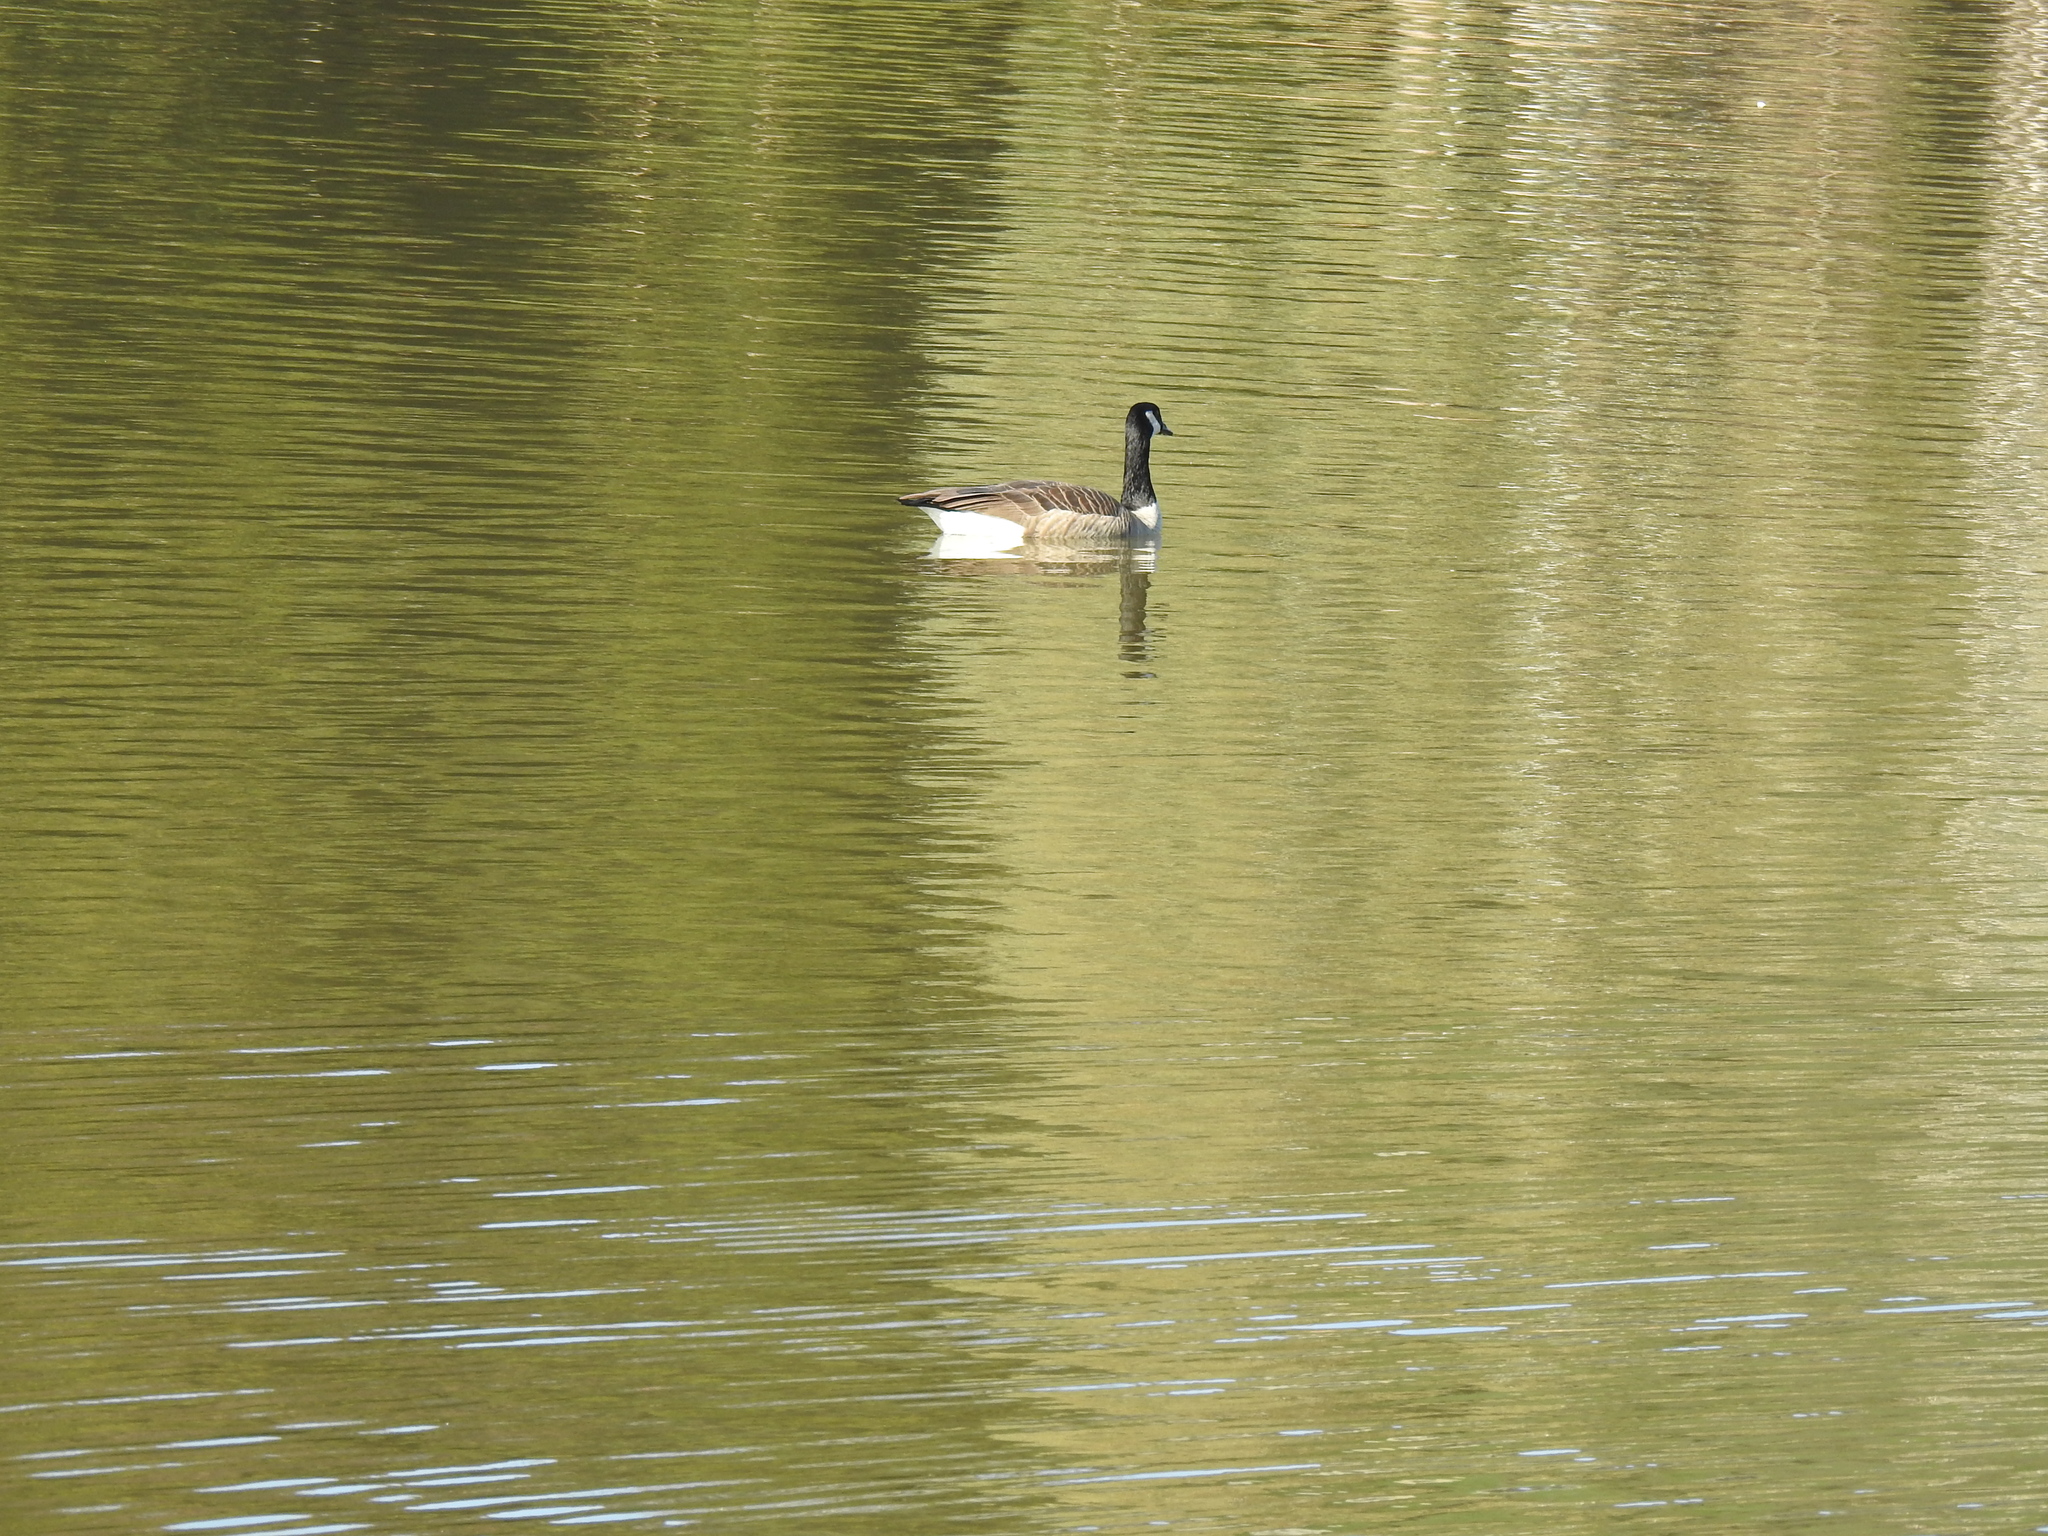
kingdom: Animalia
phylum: Chordata
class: Aves
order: Anseriformes
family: Anatidae
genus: Branta
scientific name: Branta canadensis
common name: Canada goose
